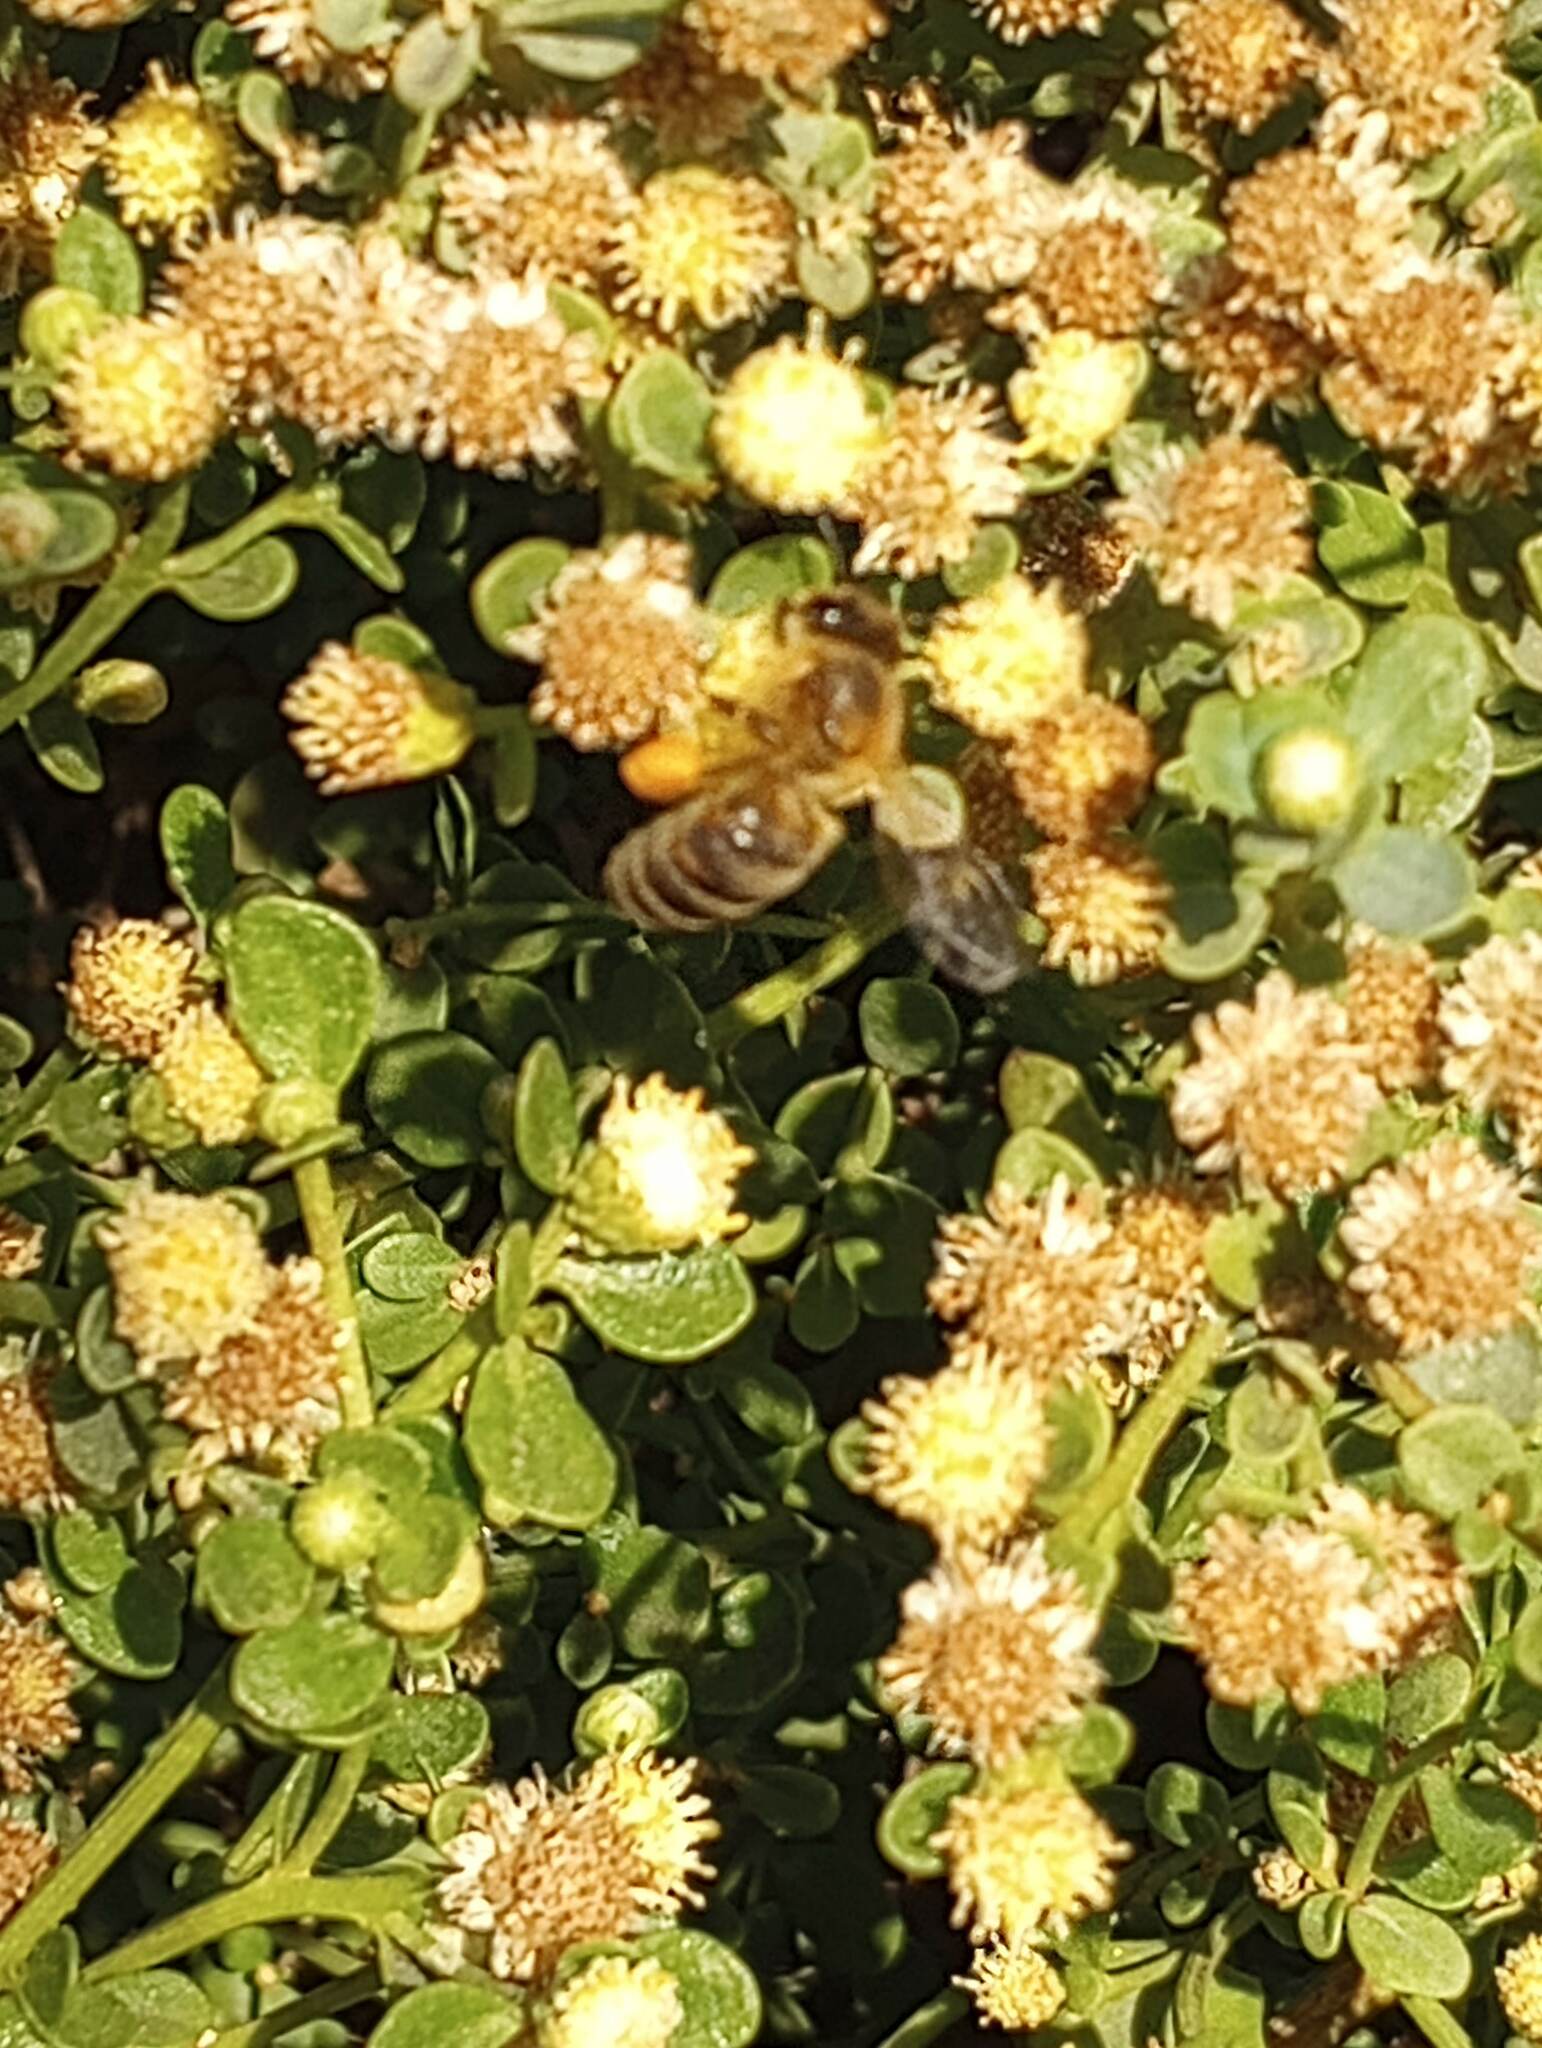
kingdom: Animalia
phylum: Arthropoda
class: Insecta
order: Hymenoptera
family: Apidae
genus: Apis
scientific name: Apis mellifera
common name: Honey bee
